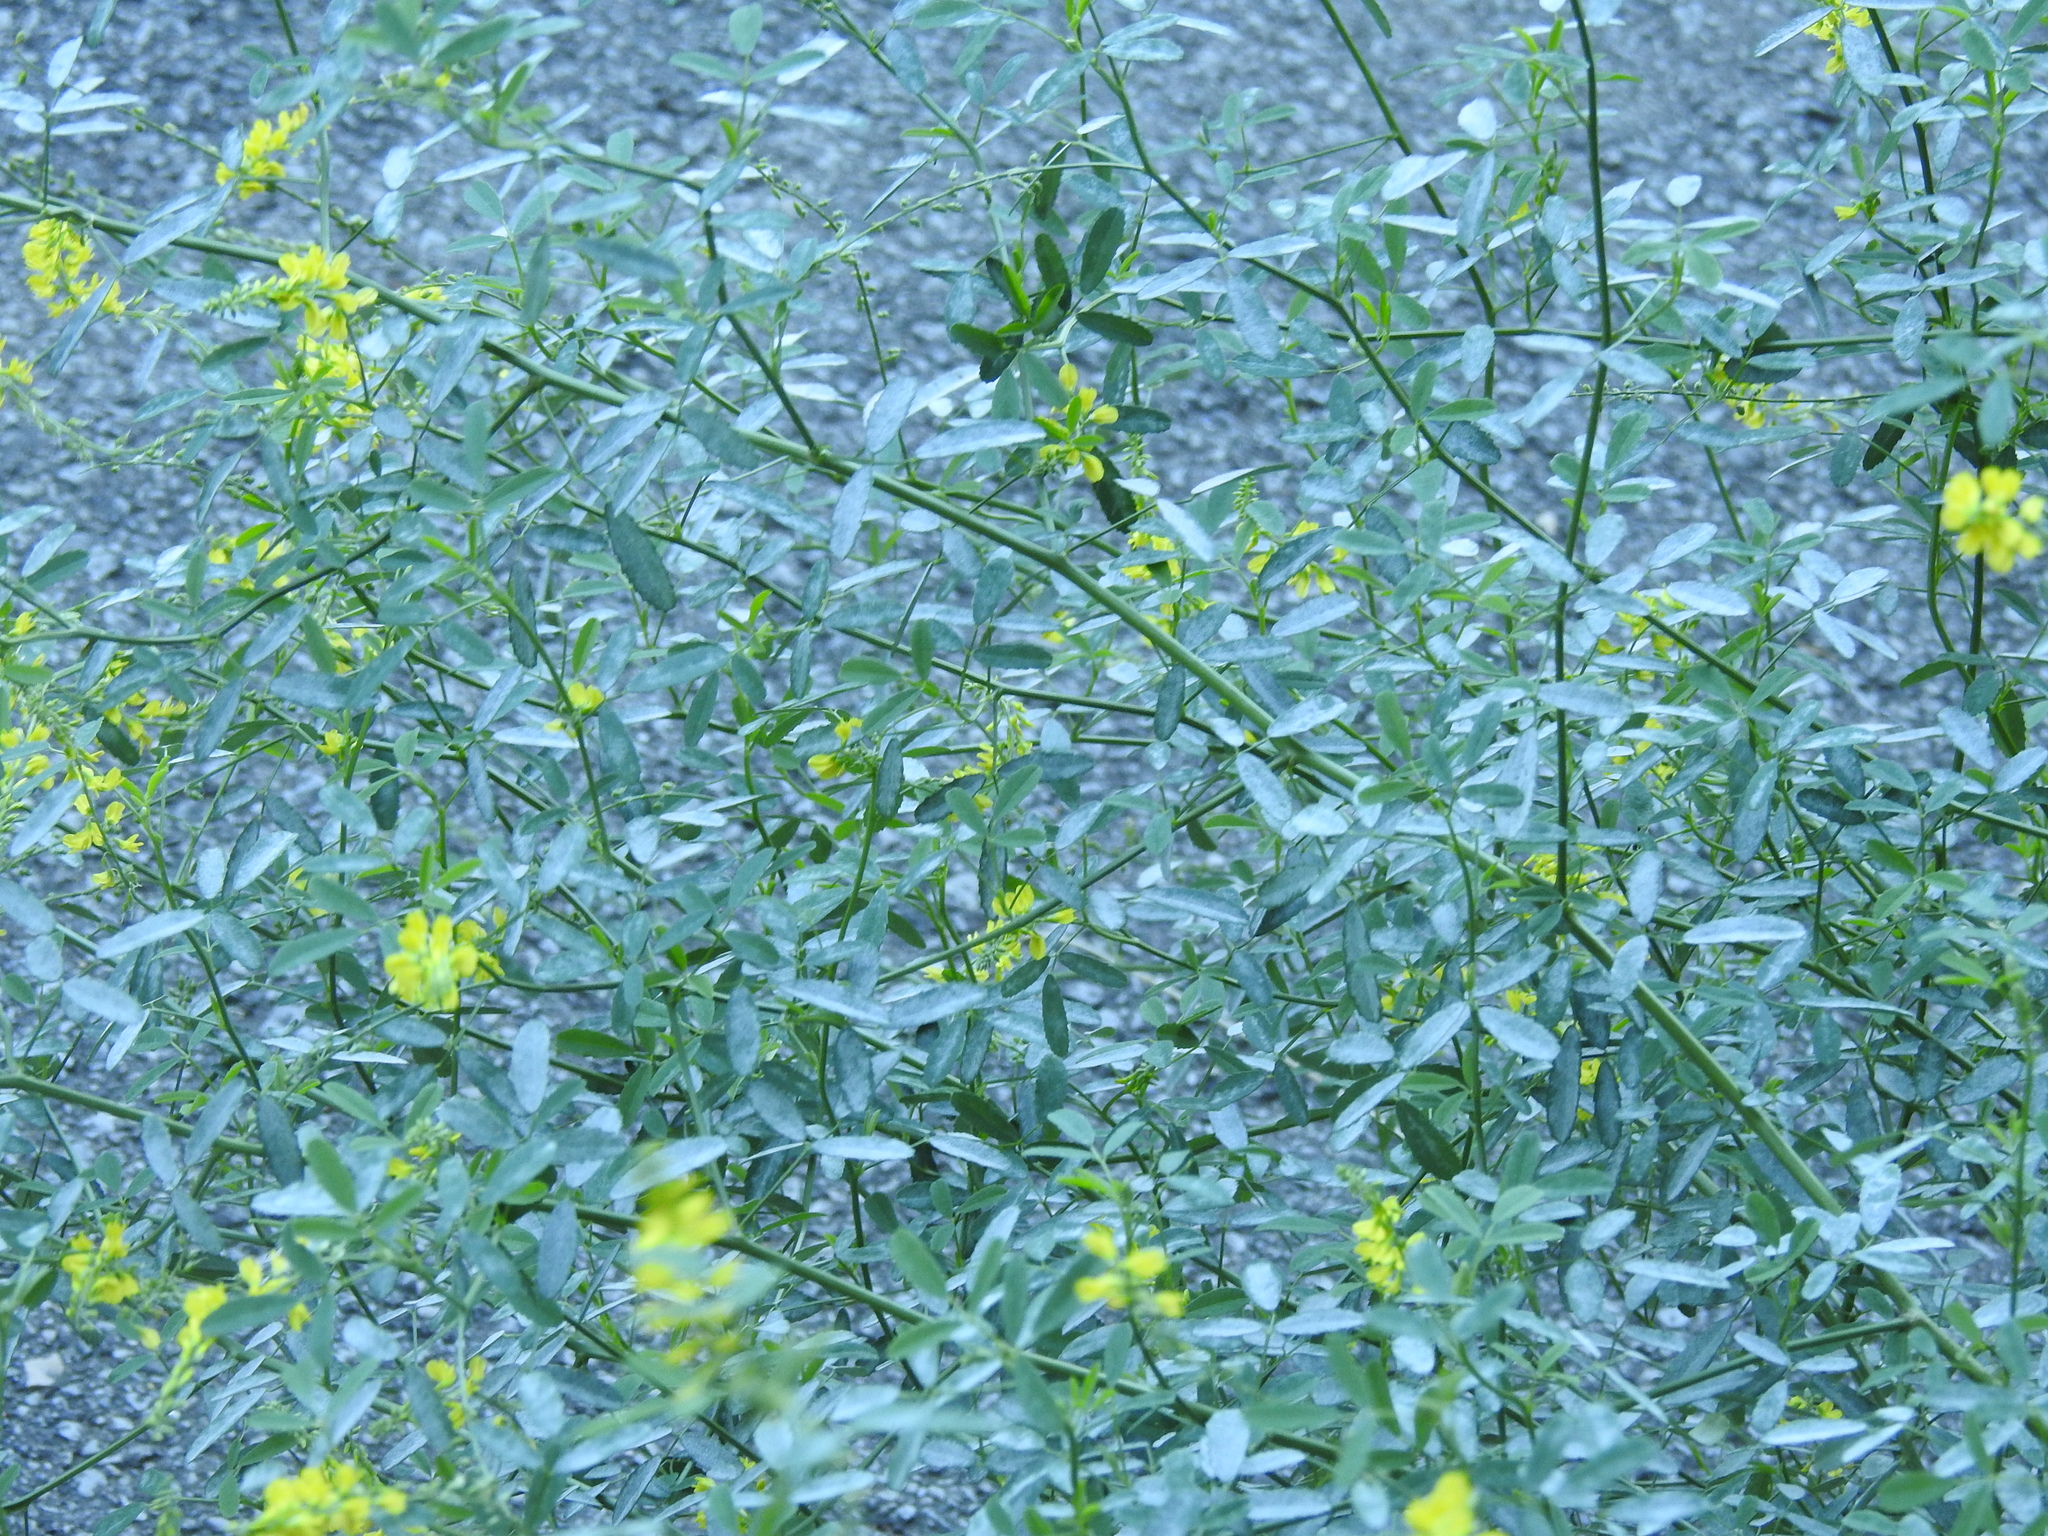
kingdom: Plantae
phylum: Tracheophyta
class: Magnoliopsida
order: Fabales
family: Fabaceae
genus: Melilotus
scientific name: Melilotus officinalis
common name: Sweetclover
